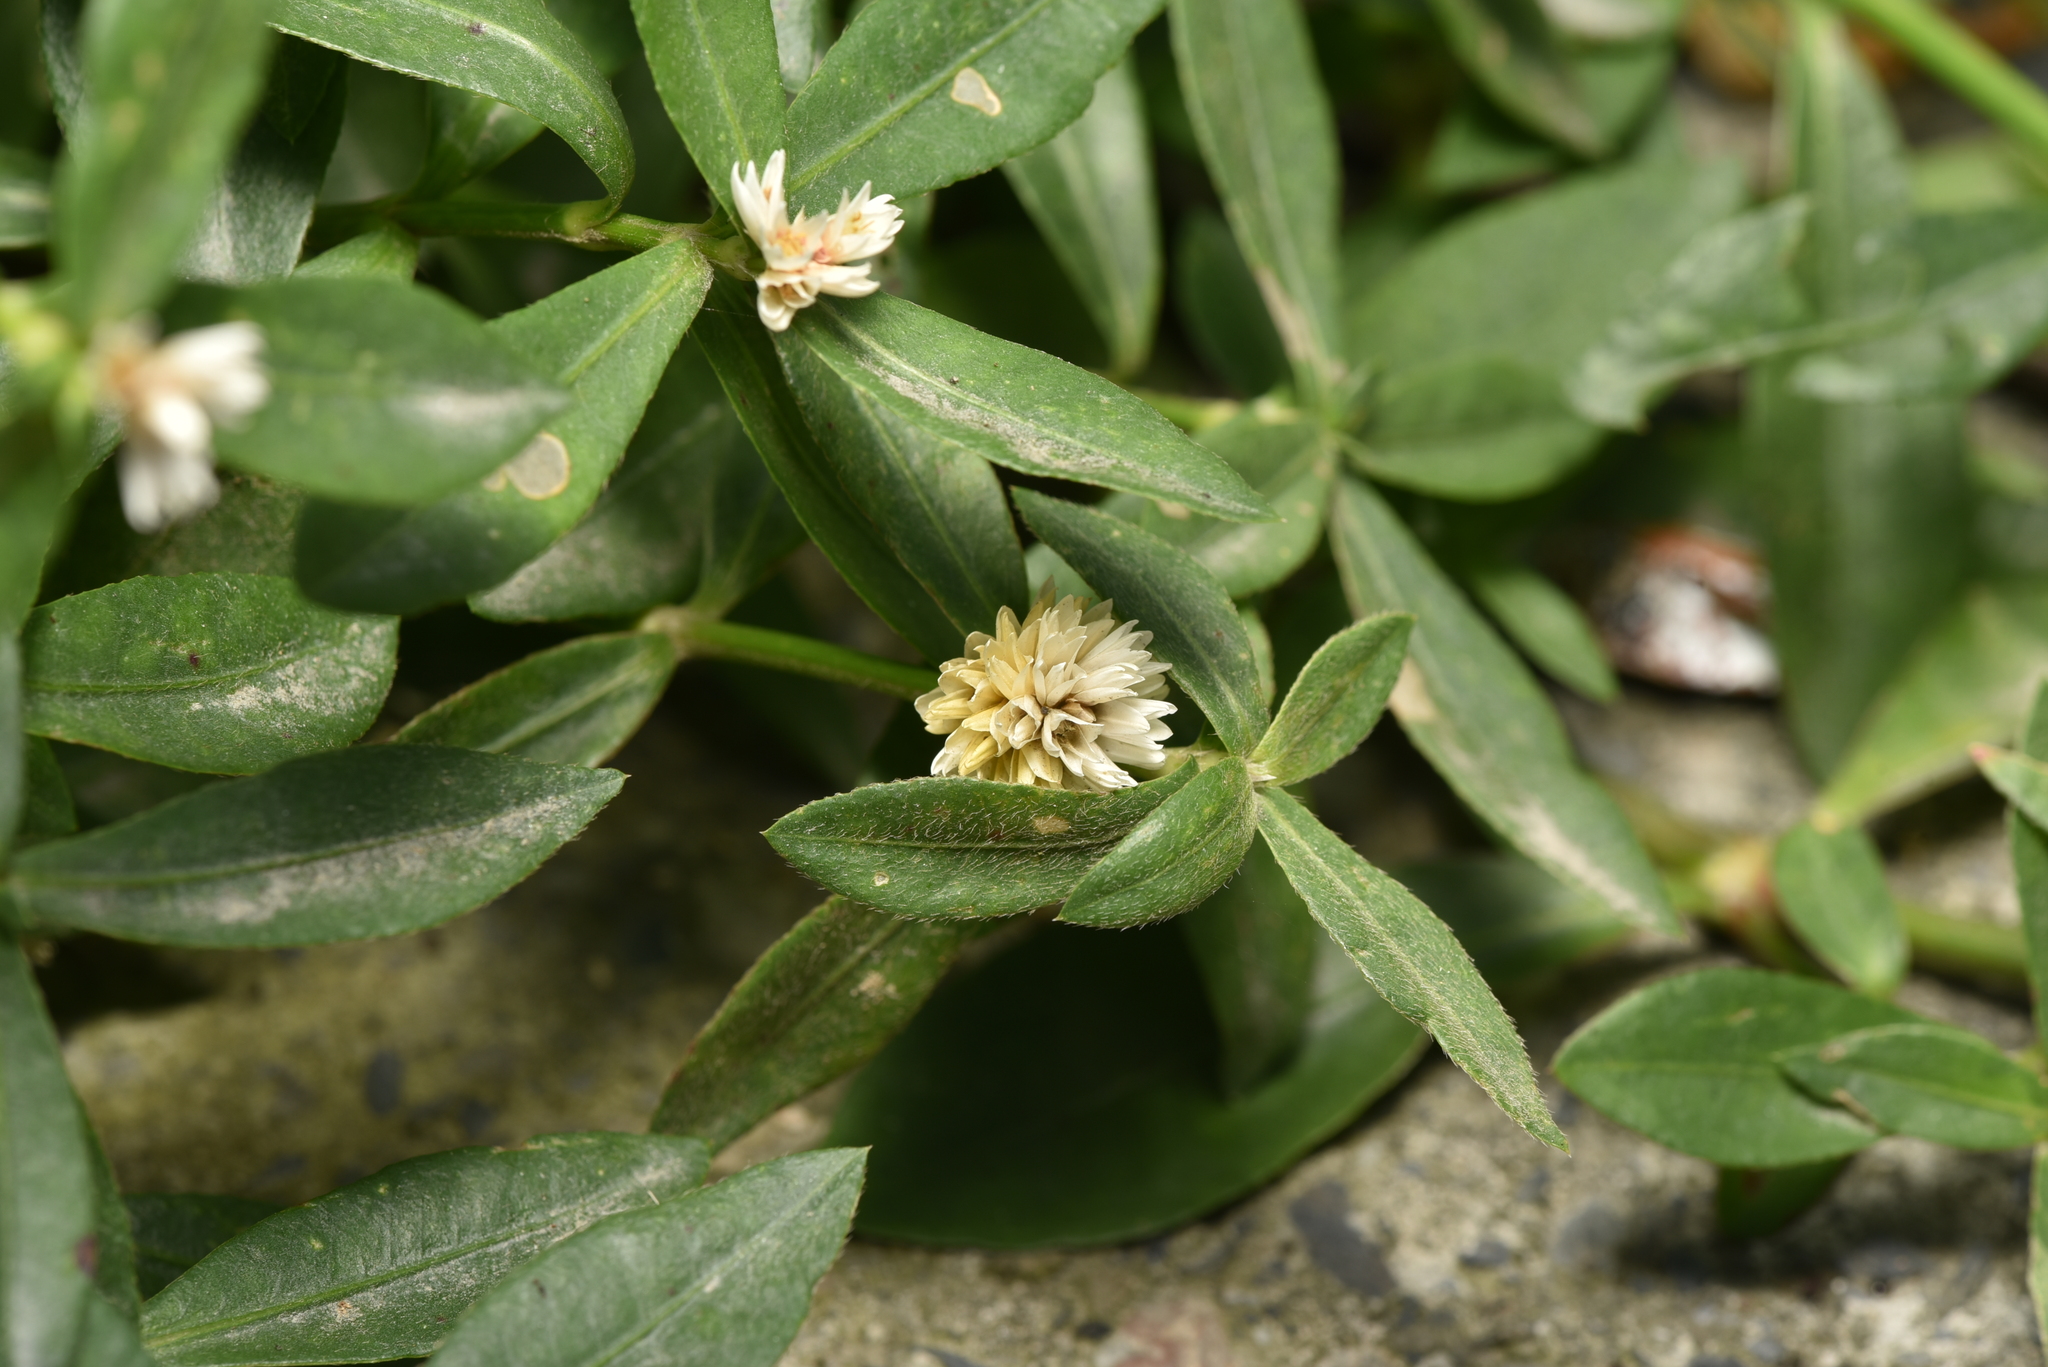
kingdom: Plantae
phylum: Tracheophyta
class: Magnoliopsida
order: Caryophyllales
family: Amaranthaceae
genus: Alternanthera
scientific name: Alternanthera philoxeroides
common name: Alligatorweed
